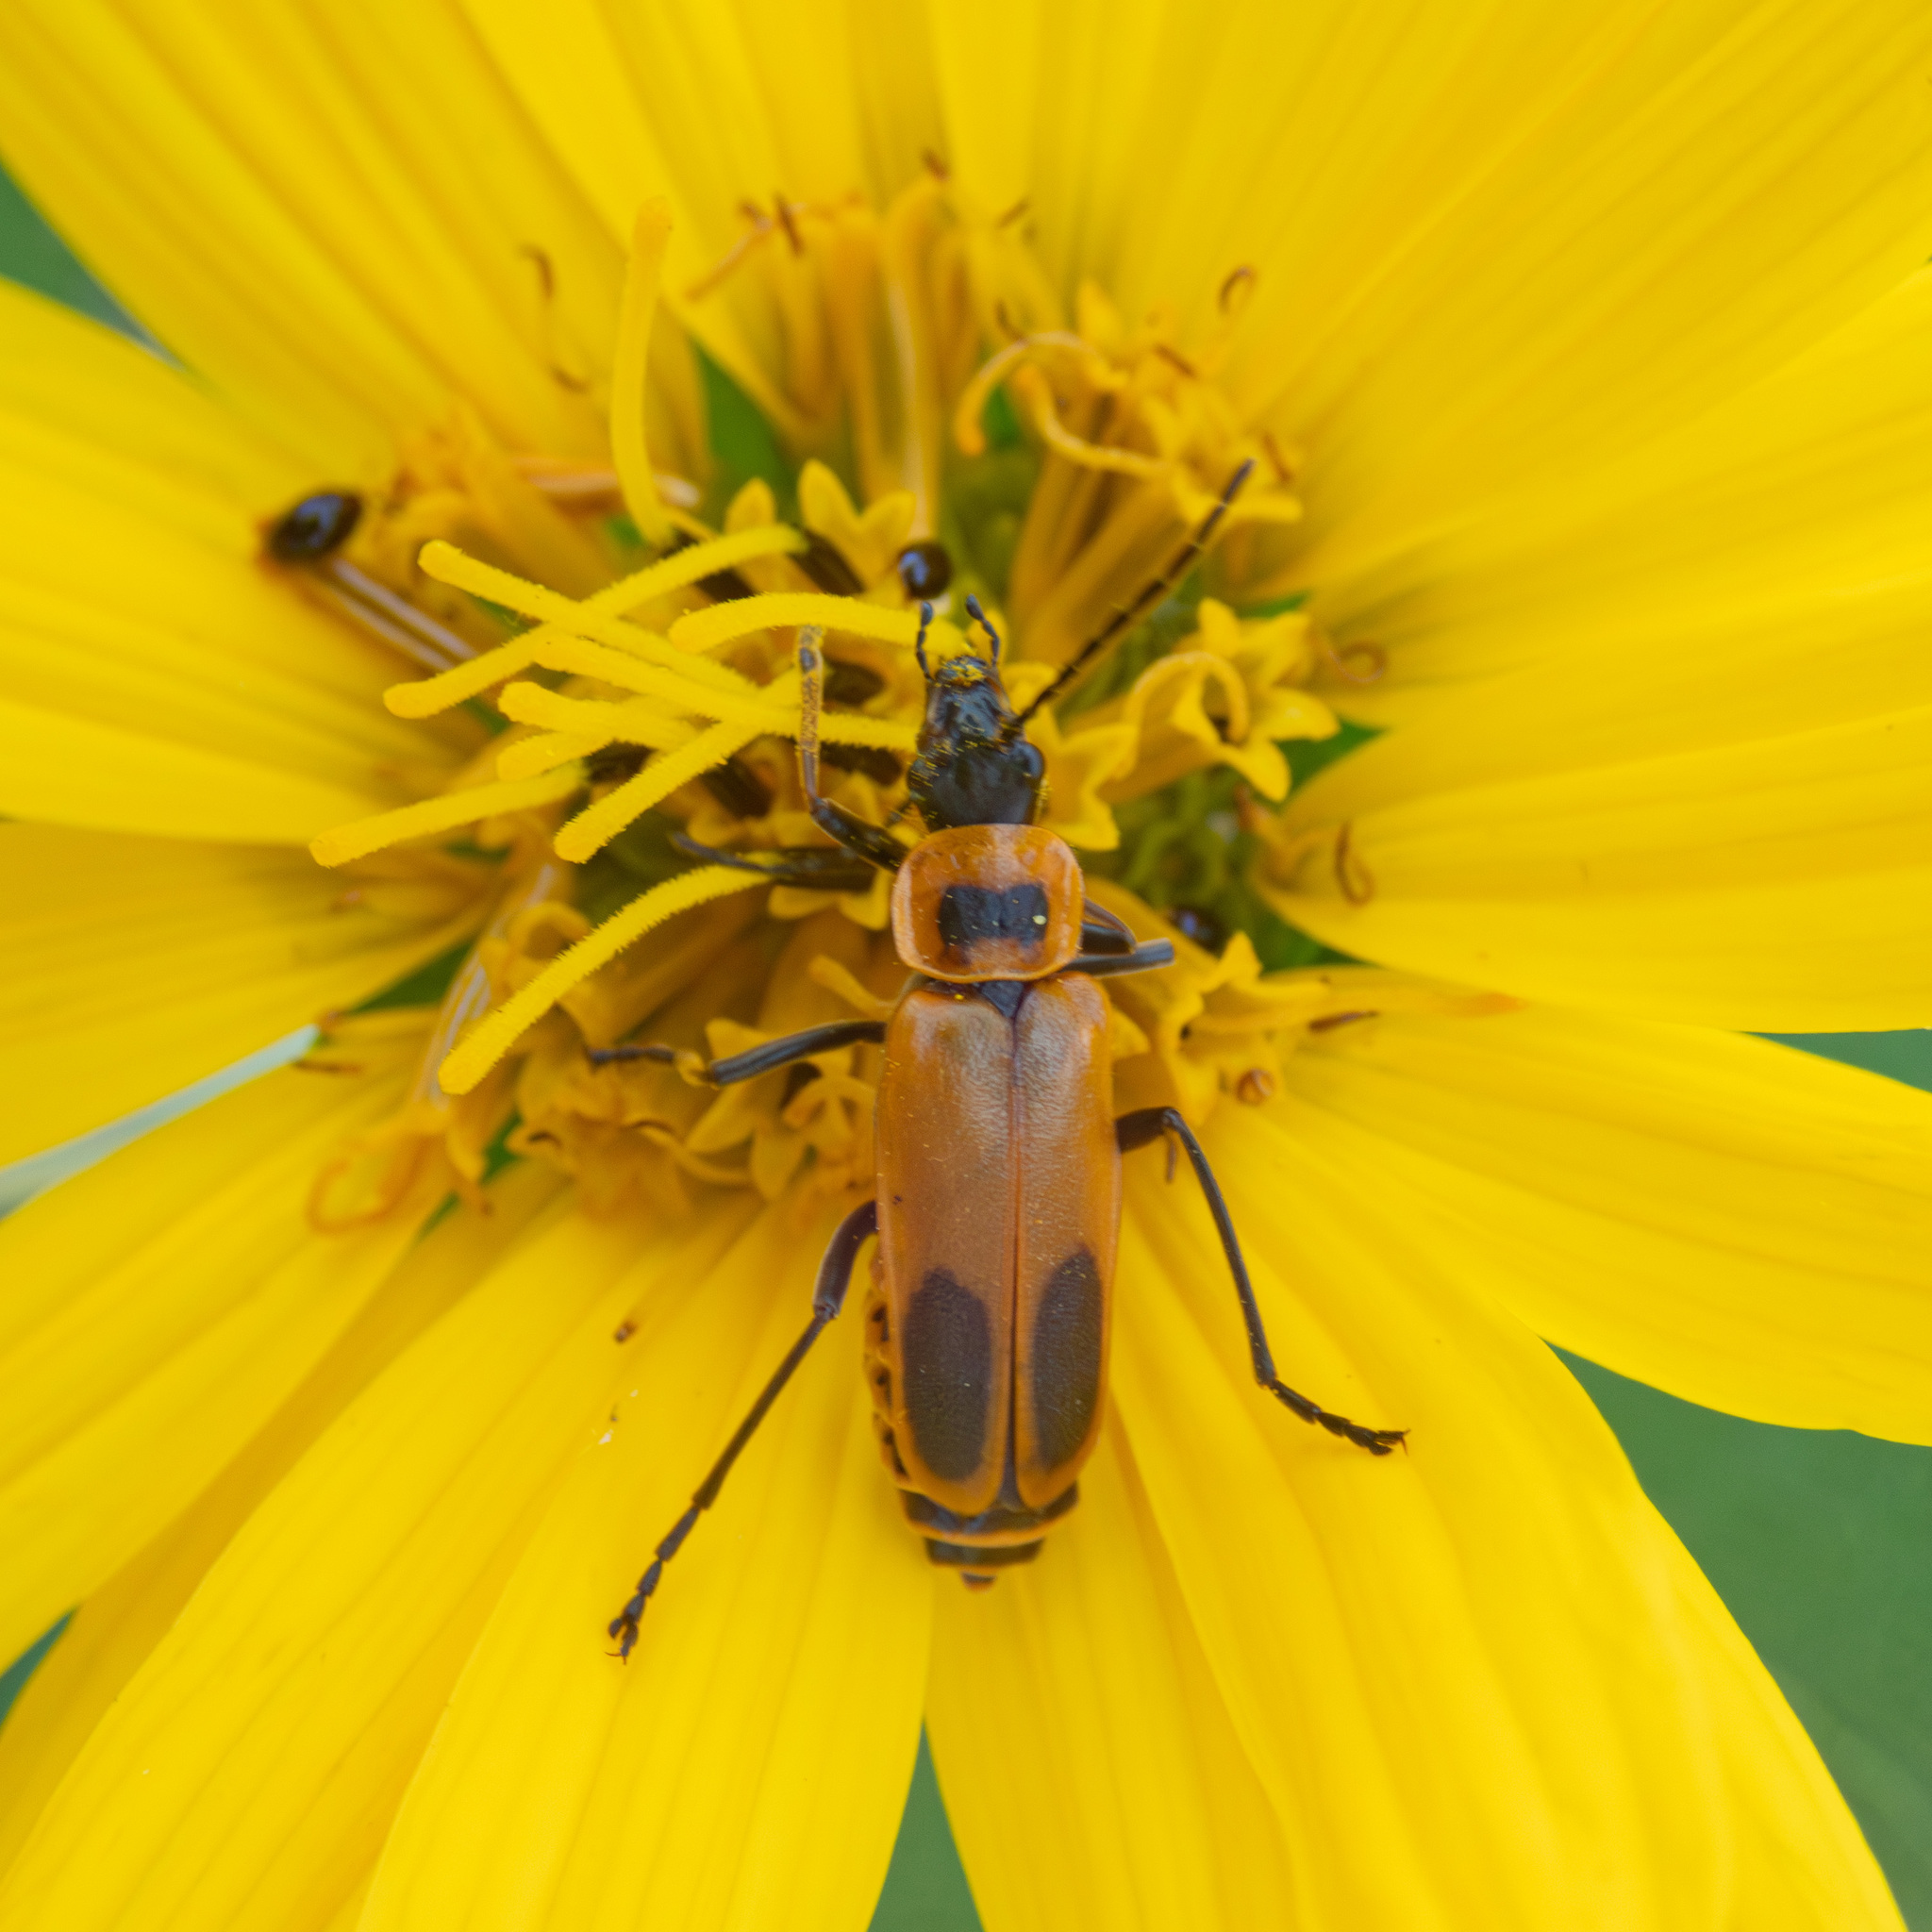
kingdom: Animalia
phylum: Arthropoda
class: Insecta
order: Coleoptera
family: Cantharidae
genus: Chauliognathus
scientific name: Chauliognathus pensylvanicus
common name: Goldenrod soldier beetle
